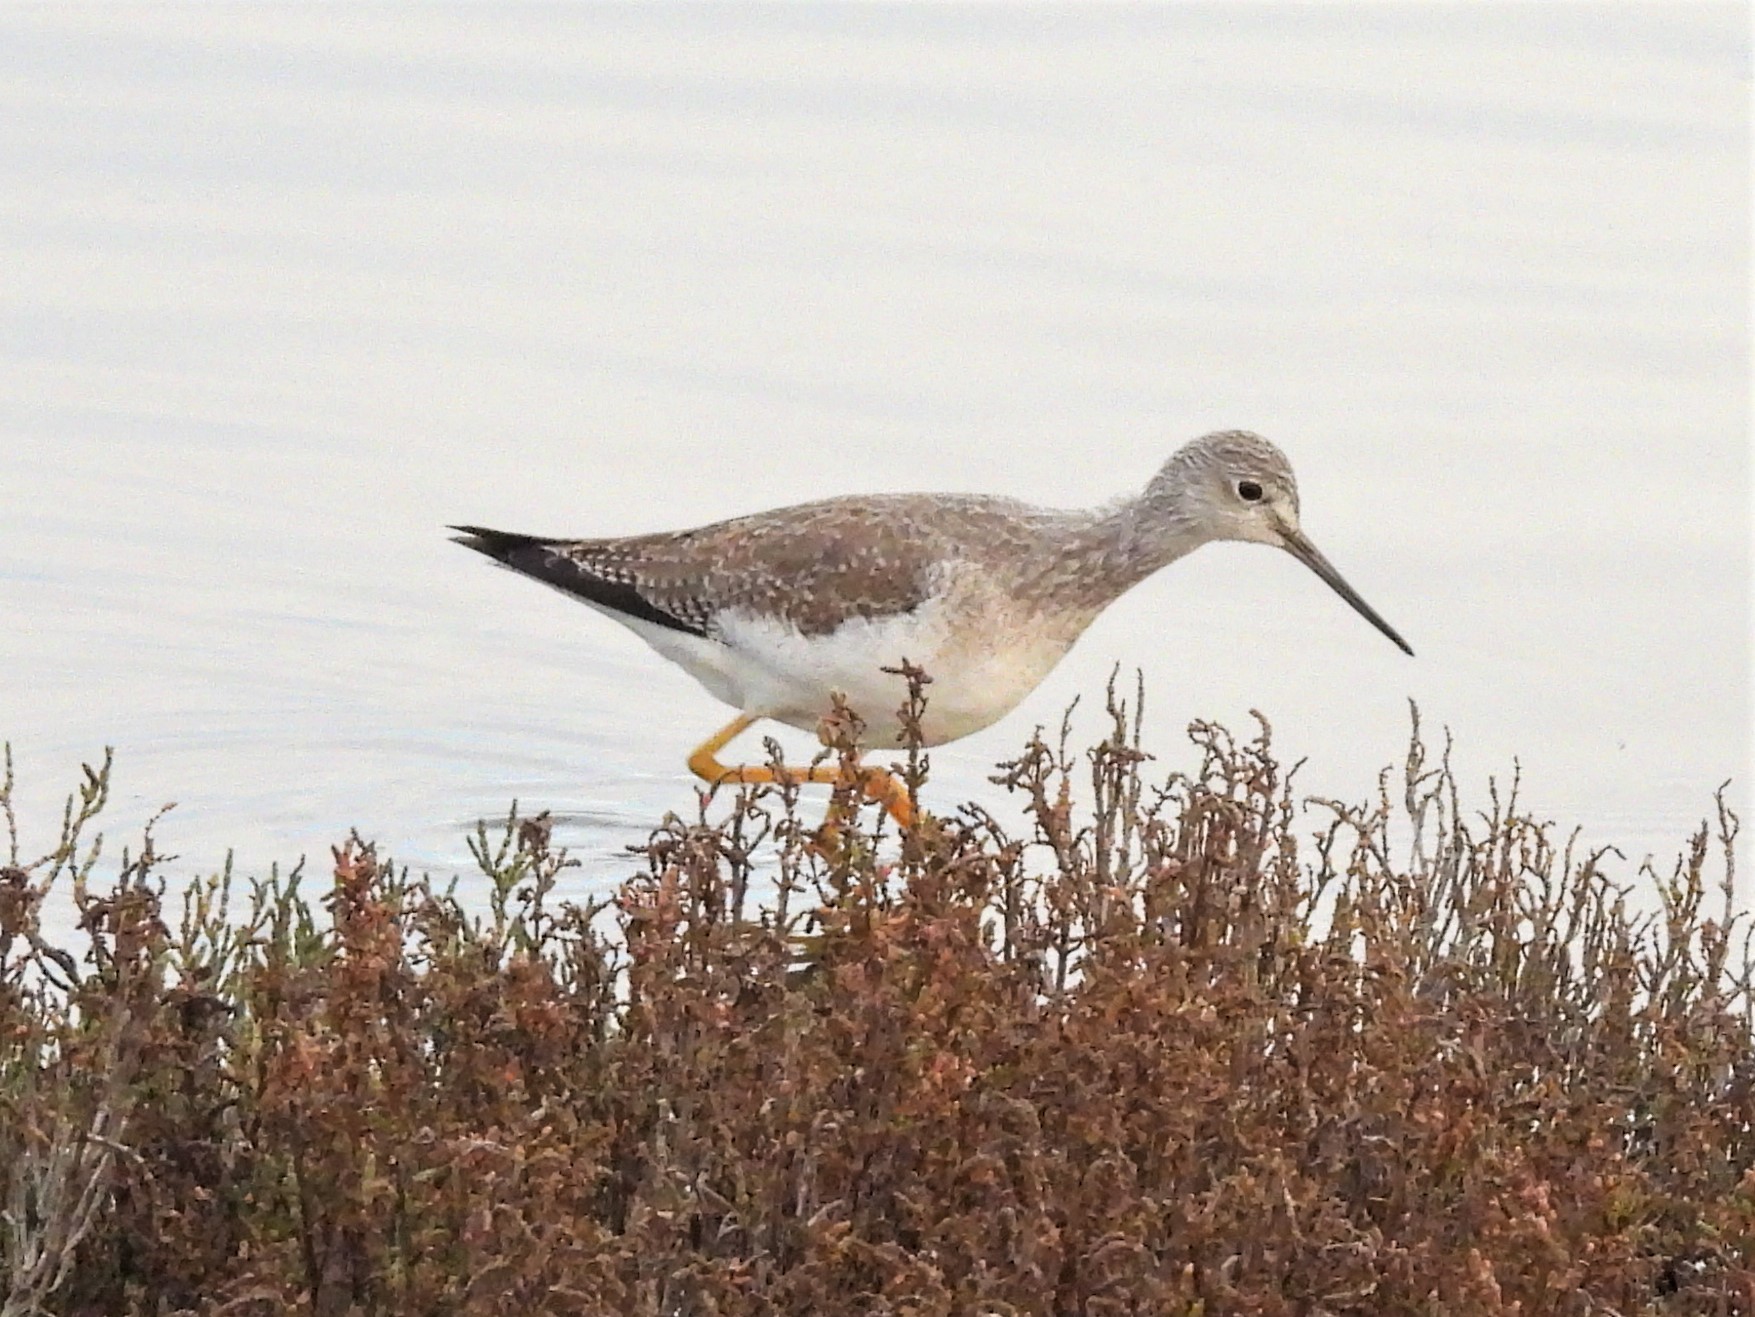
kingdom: Animalia
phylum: Chordata
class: Aves
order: Charadriiformes
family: Scolopacidae
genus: Tringa
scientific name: Tringa melanoleuca
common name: Greater yellowlegs
